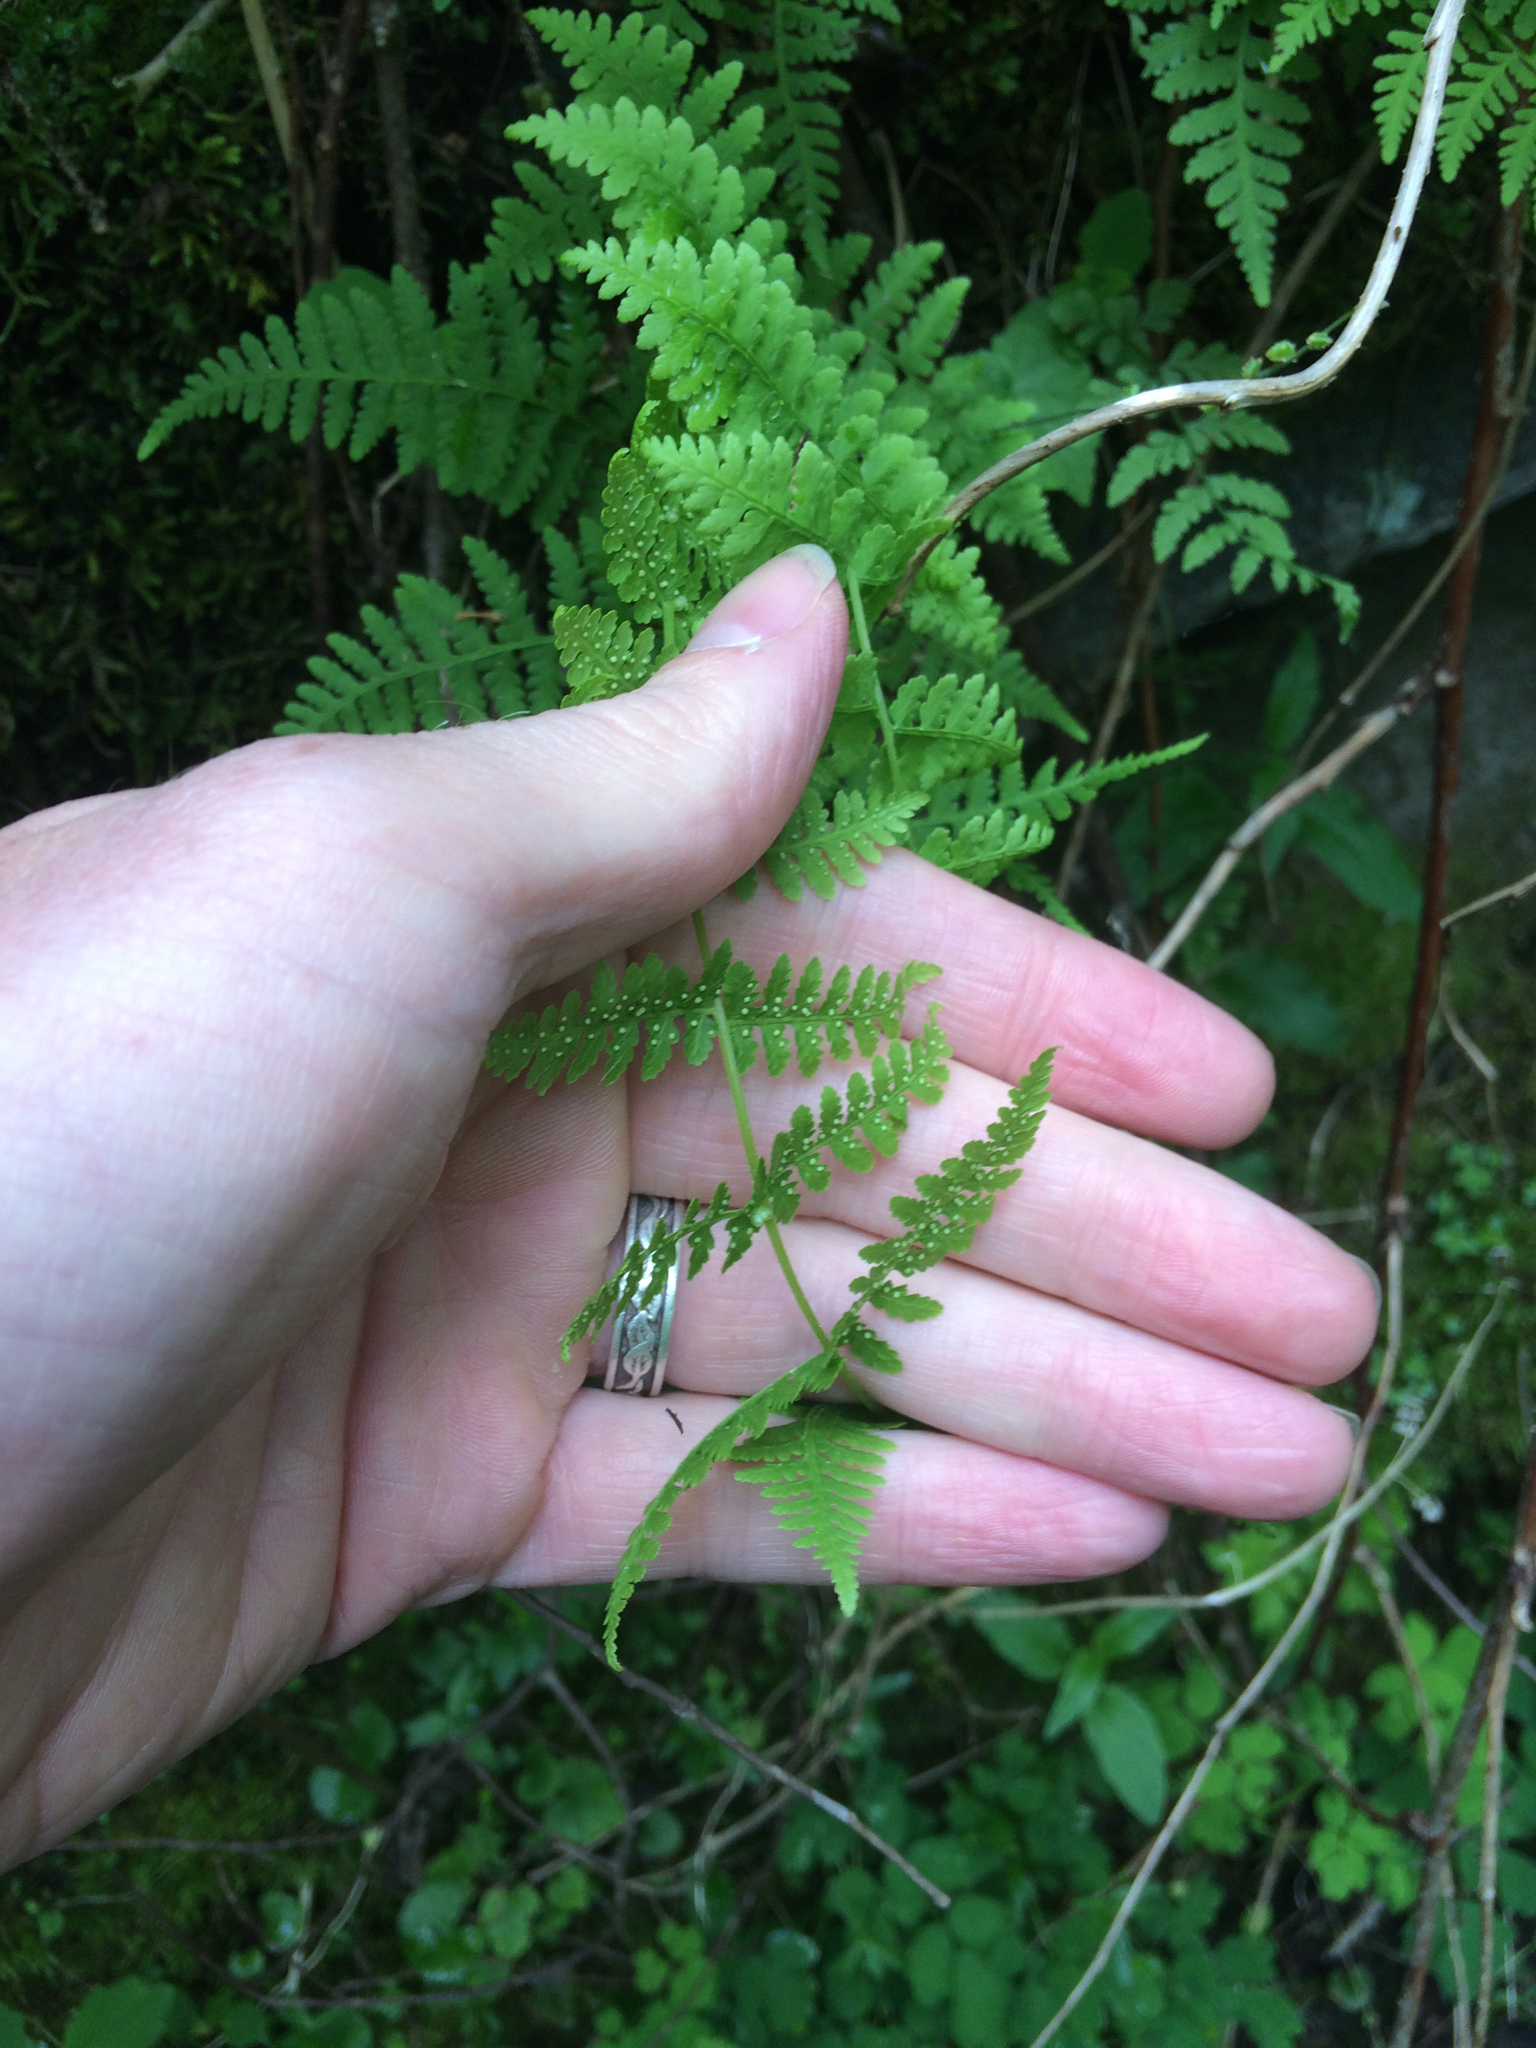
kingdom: Plantae
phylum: Tracheophyta
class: Polypodiopsida
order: Polypodiales
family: Cystopteridaceae
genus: Cystopteris
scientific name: Cystopteris bulbifera
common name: Bulblet bladder fern
